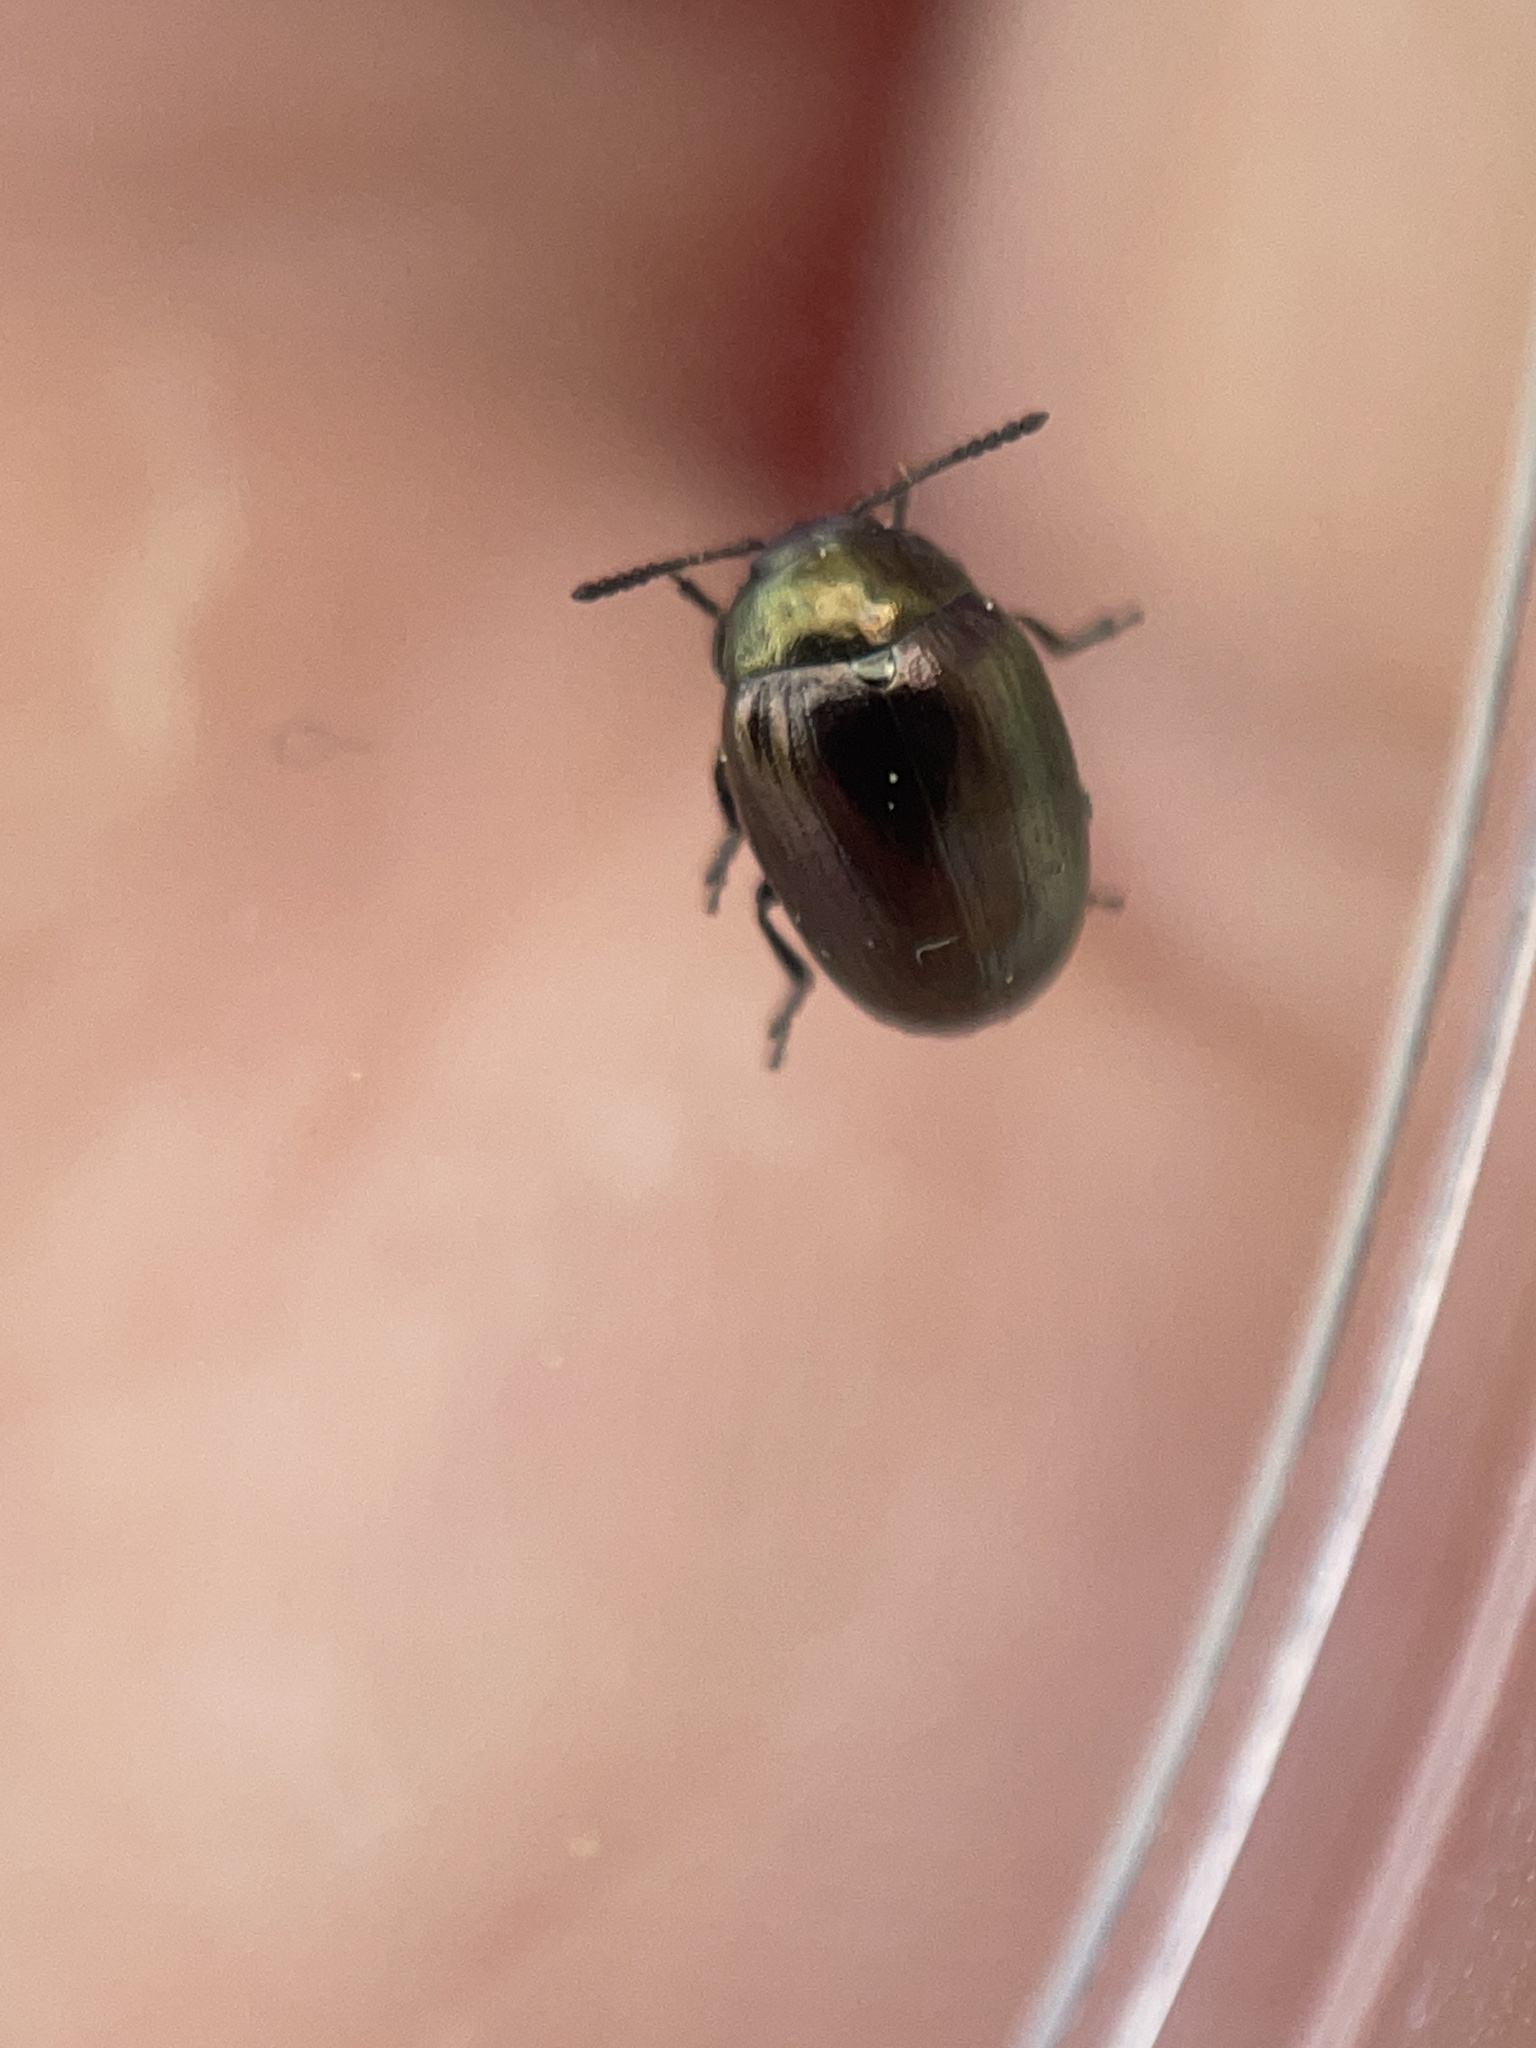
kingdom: Animalia
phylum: Arthropoda
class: Insecta
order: Coleoptera
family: Chrysomelidae
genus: Phaedon
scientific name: Phaedon desotonis
